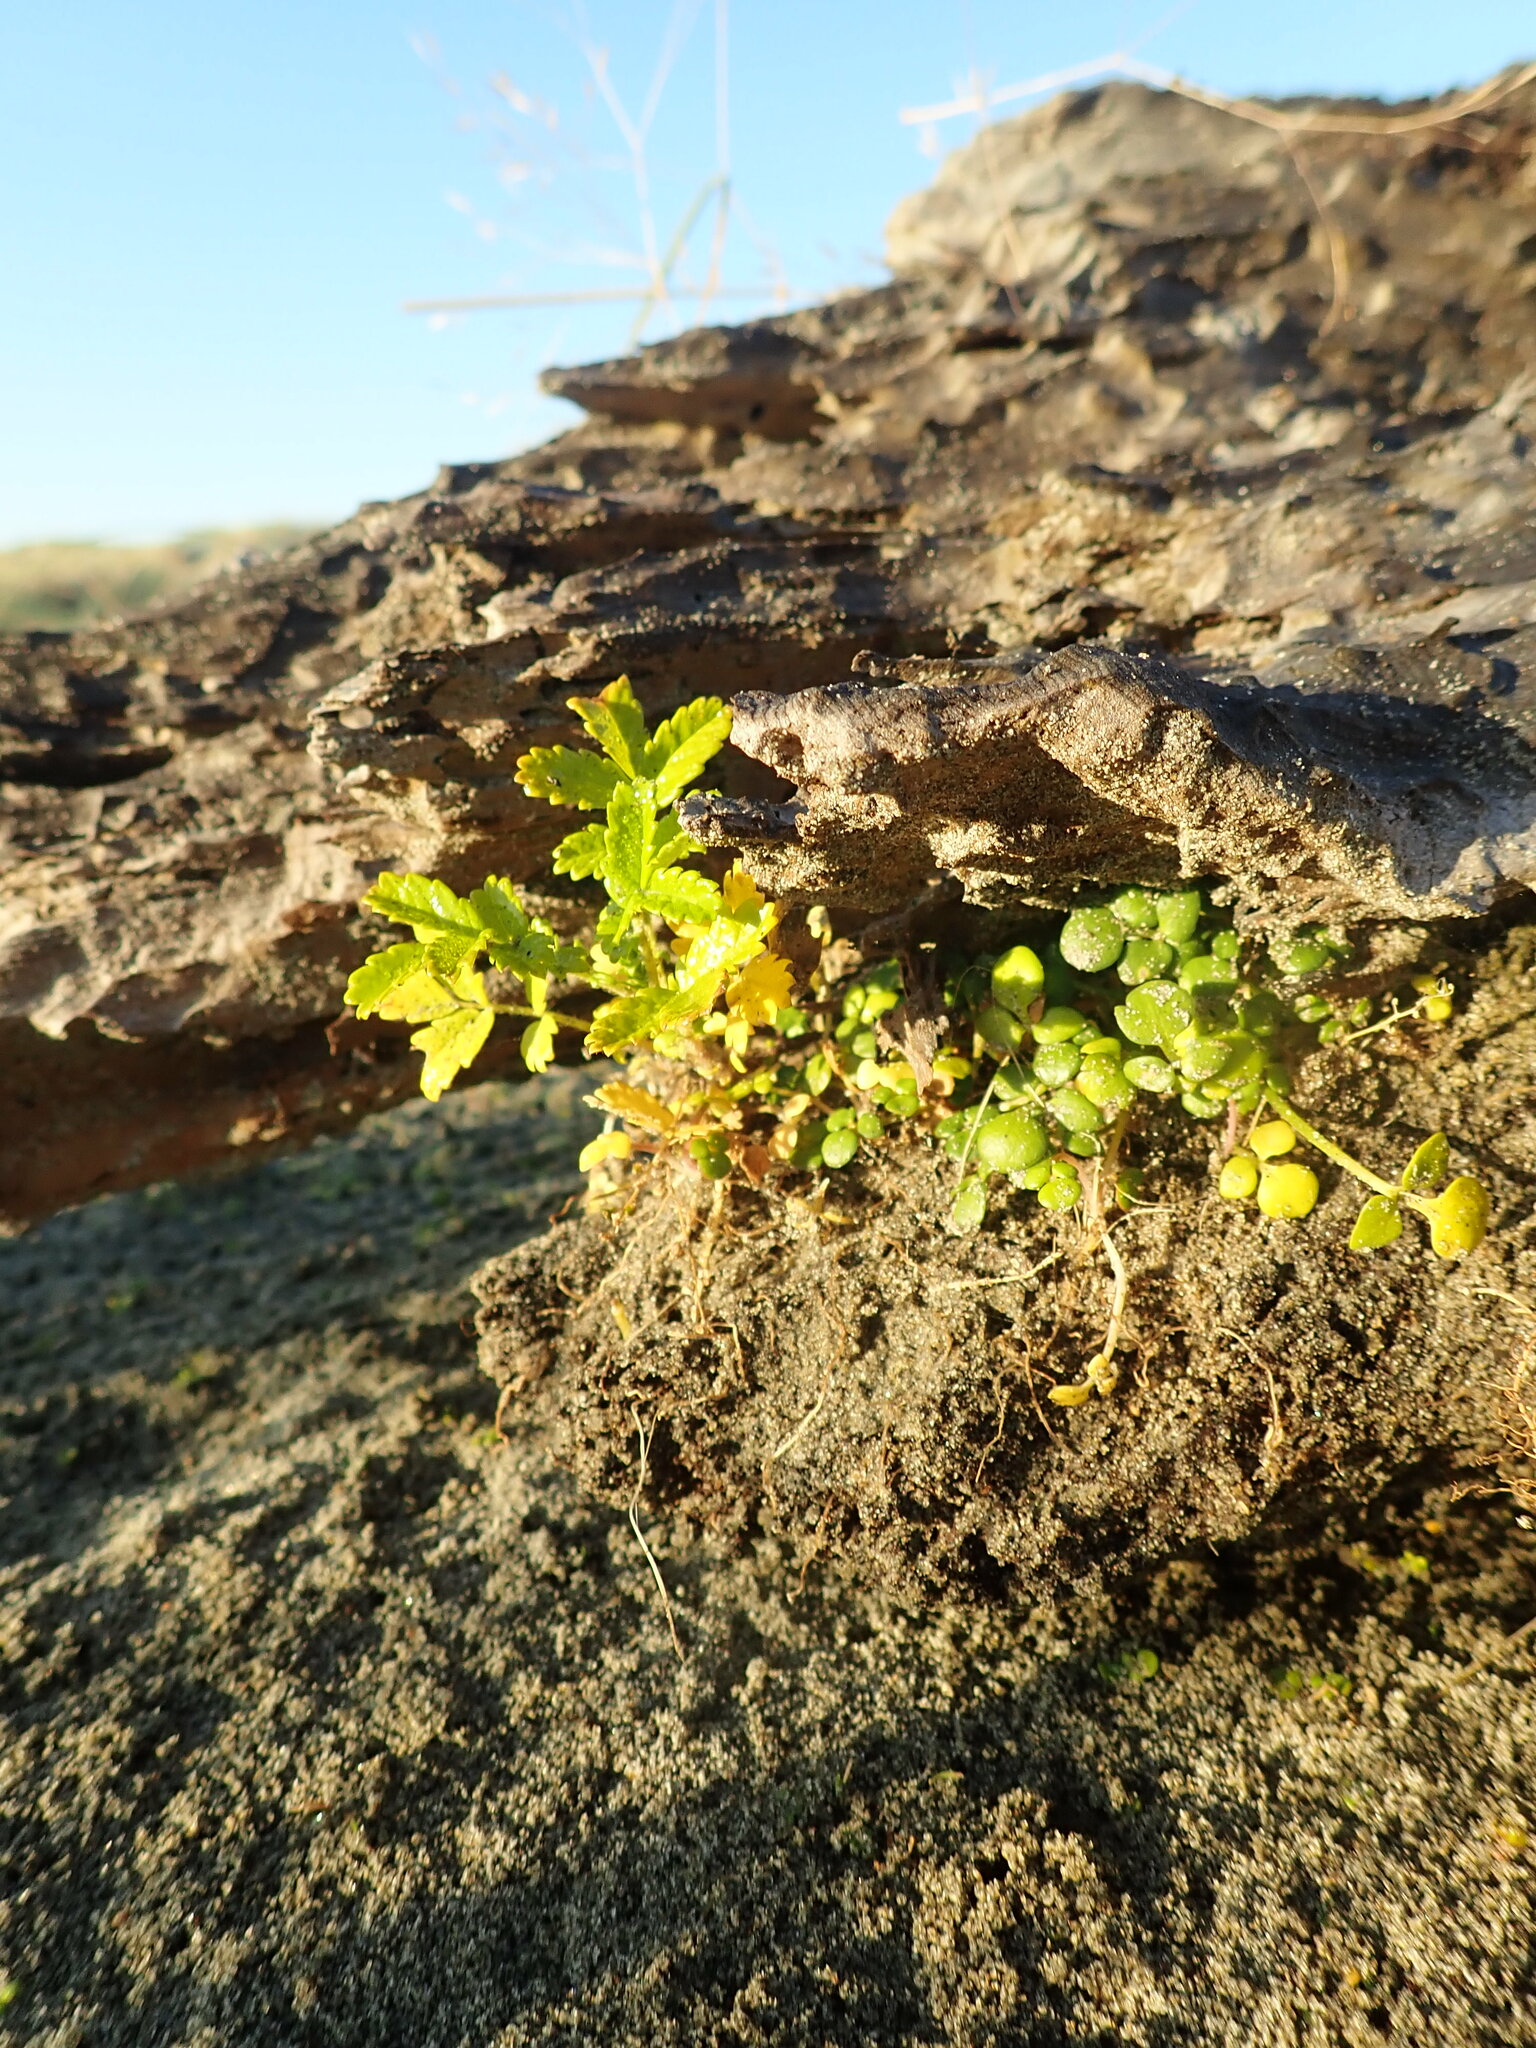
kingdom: Plantae
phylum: Tracheophyta
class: Magnoliopsida
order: Ranunculales
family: Ranunculaceae
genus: Ranunculus
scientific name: Ranunculus acaulis
